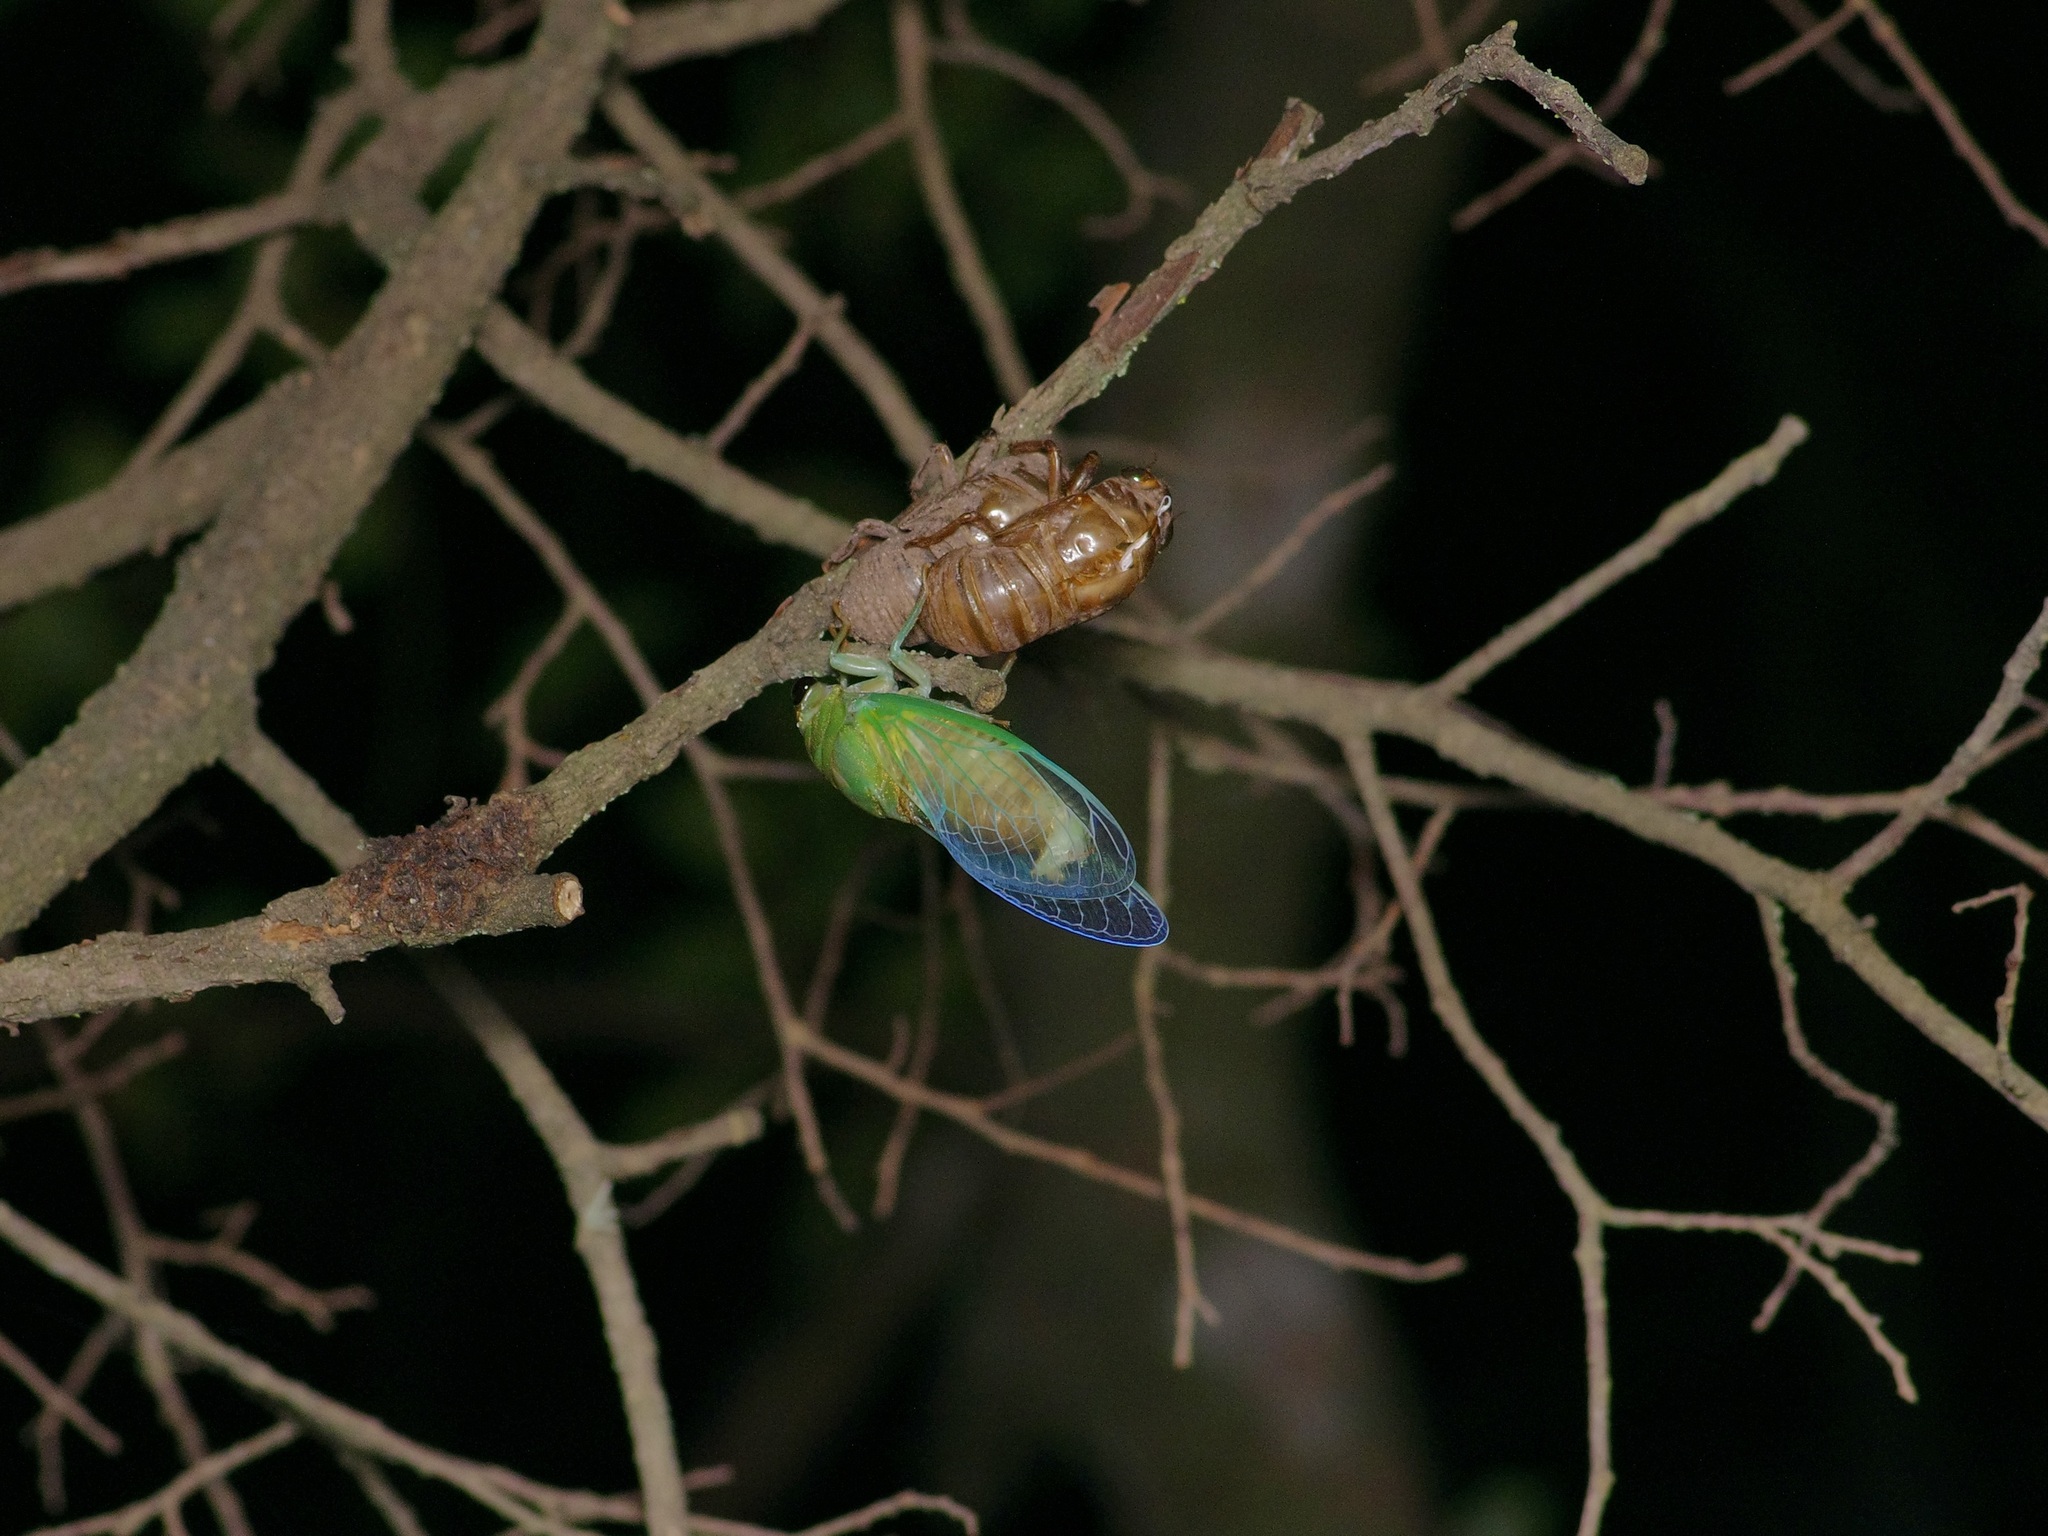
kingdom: Animalia
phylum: Arthropoda
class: Insecta
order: Hemiptera
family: Cicadidae
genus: Neotibicen
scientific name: Neotibicen superbus
